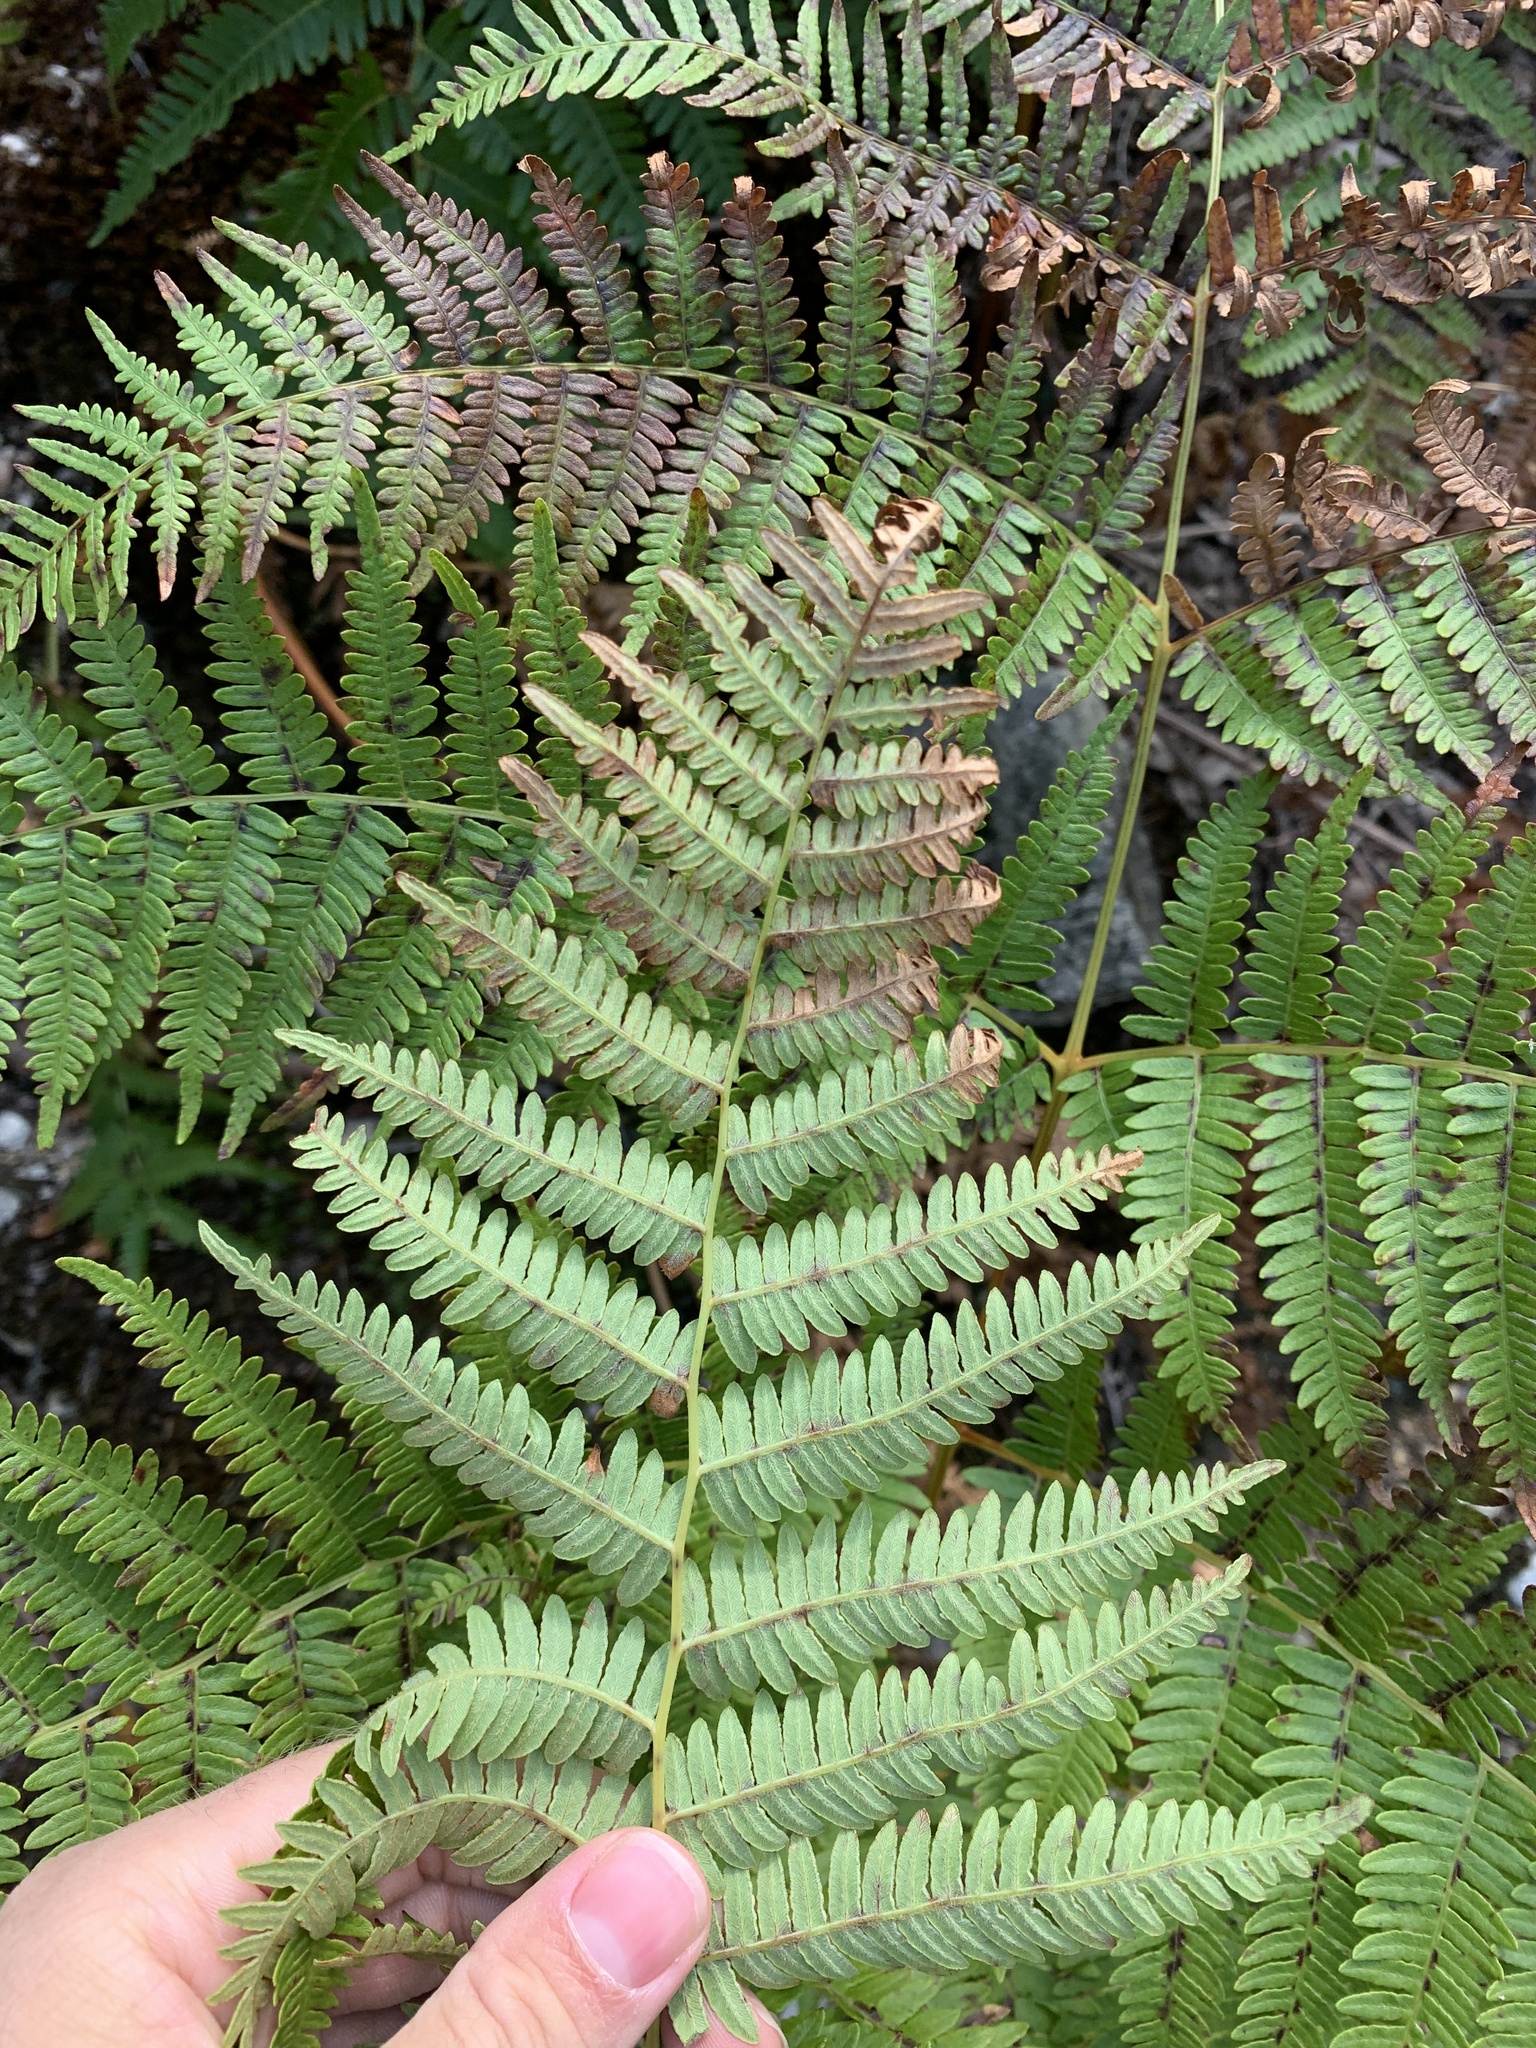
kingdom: Plantae
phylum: Tracheophyta
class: Polypodiopsida
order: Polypodiales
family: Dennstaedtiaceae
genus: Pteridium
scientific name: Pteridium aquilinum
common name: Bracken
